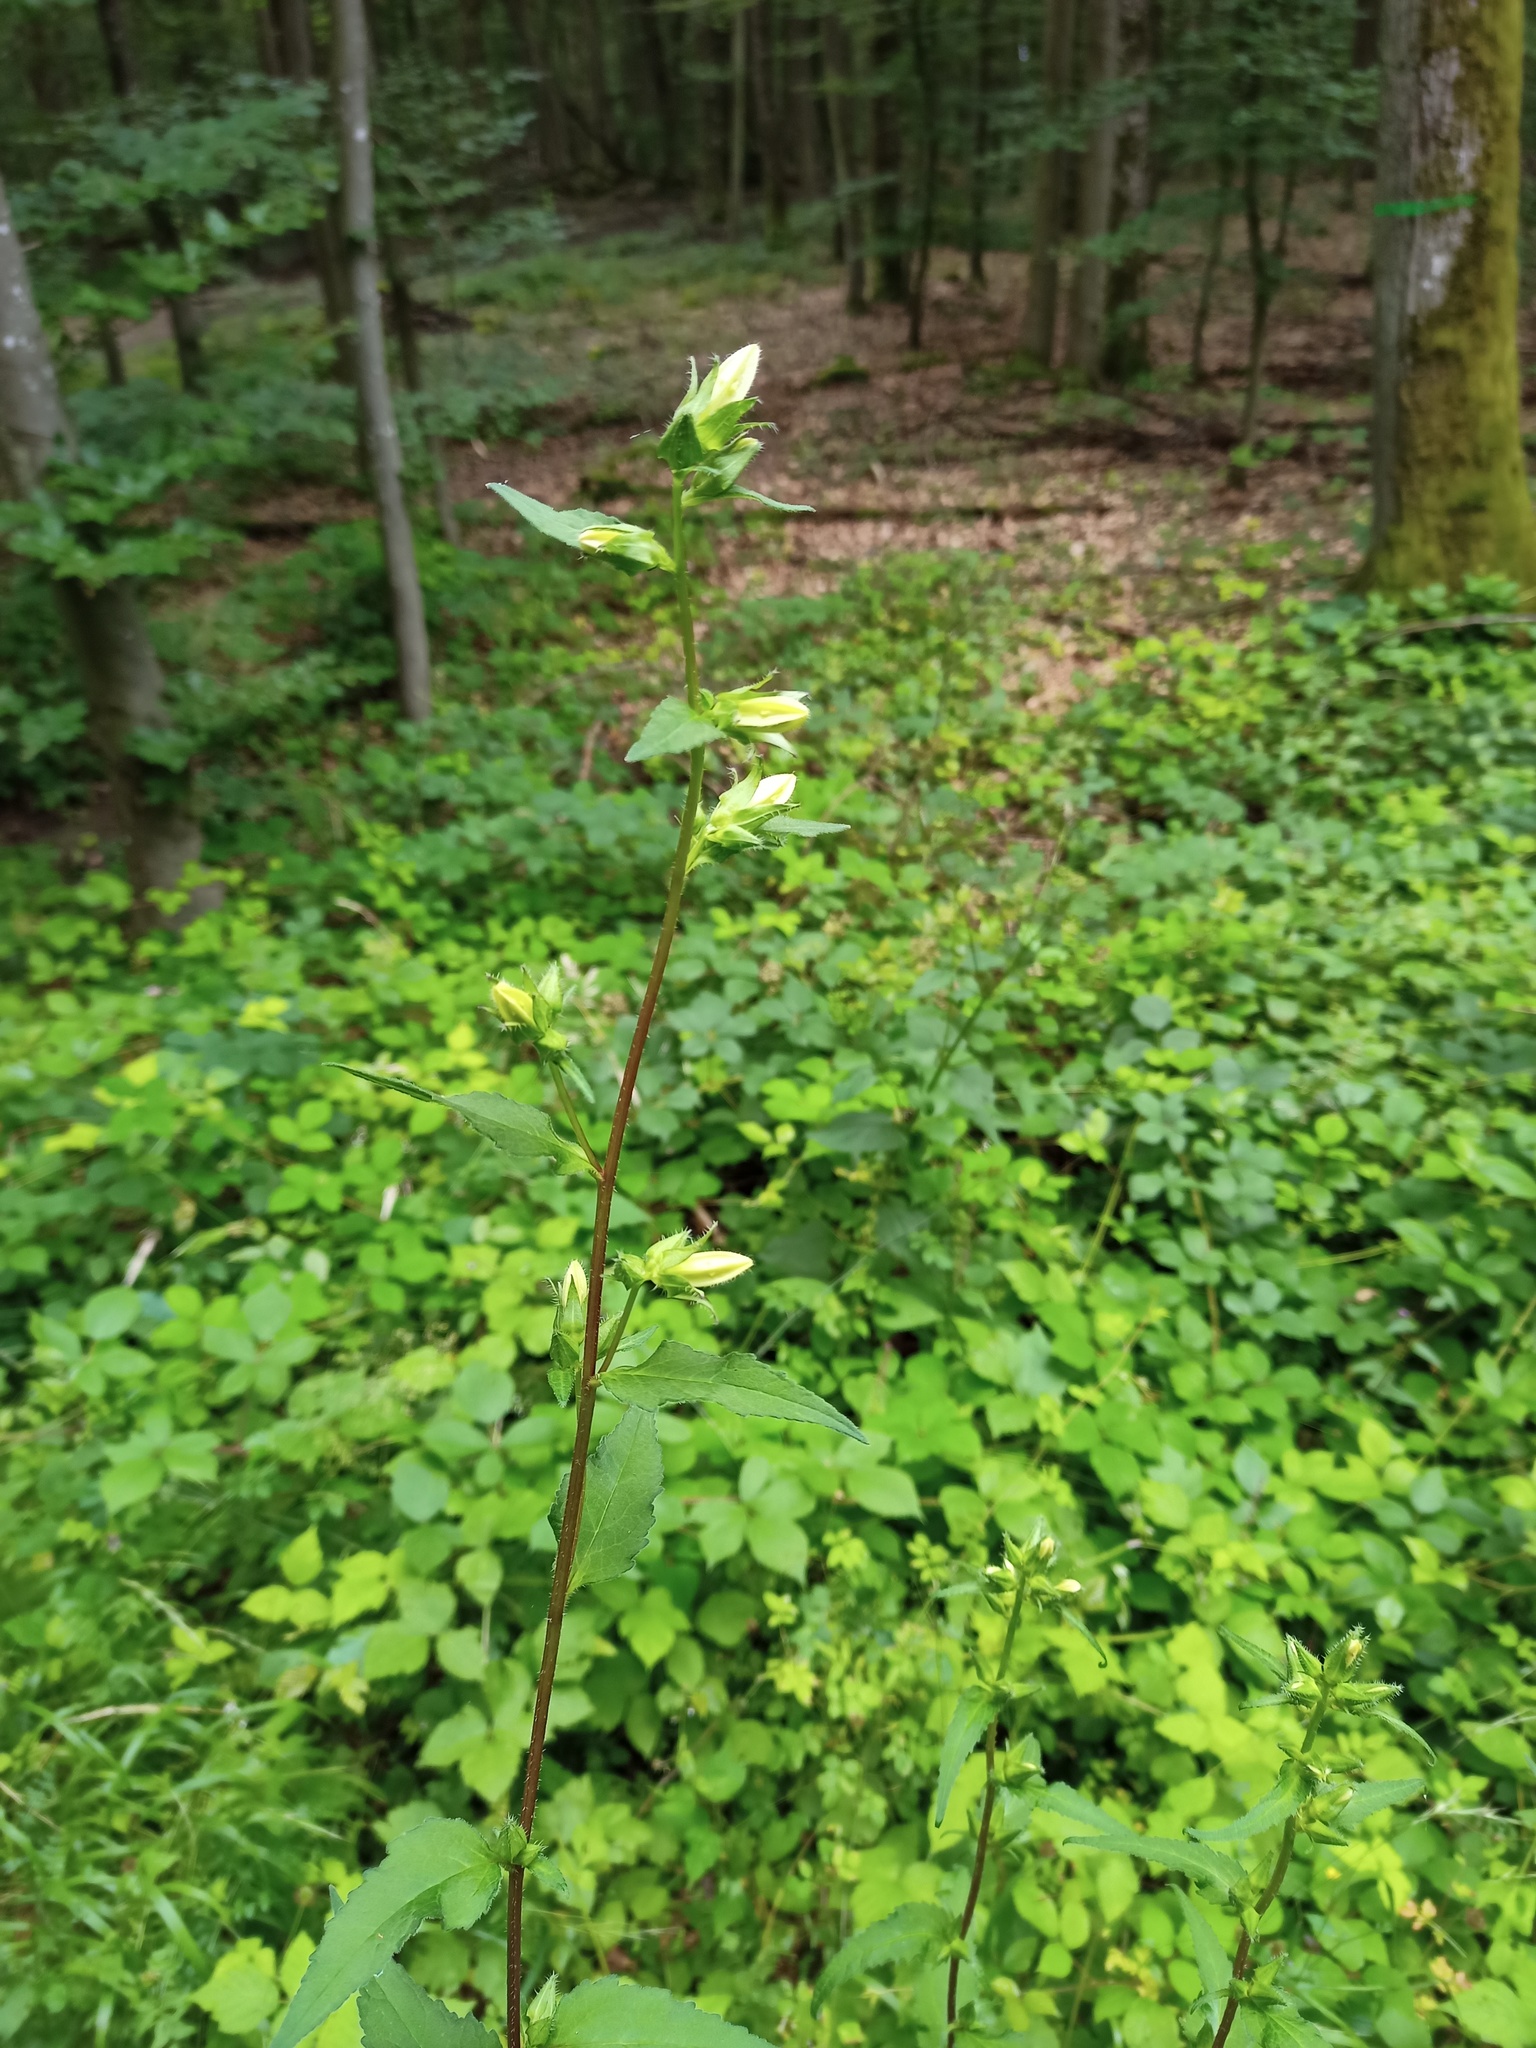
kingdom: Plantae
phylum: Tracheophyta
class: Magnoliopsida
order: Asterales
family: Campanulaceae
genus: Campanula
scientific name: Campanula trachelium
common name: Nettle-leaved bellflower
